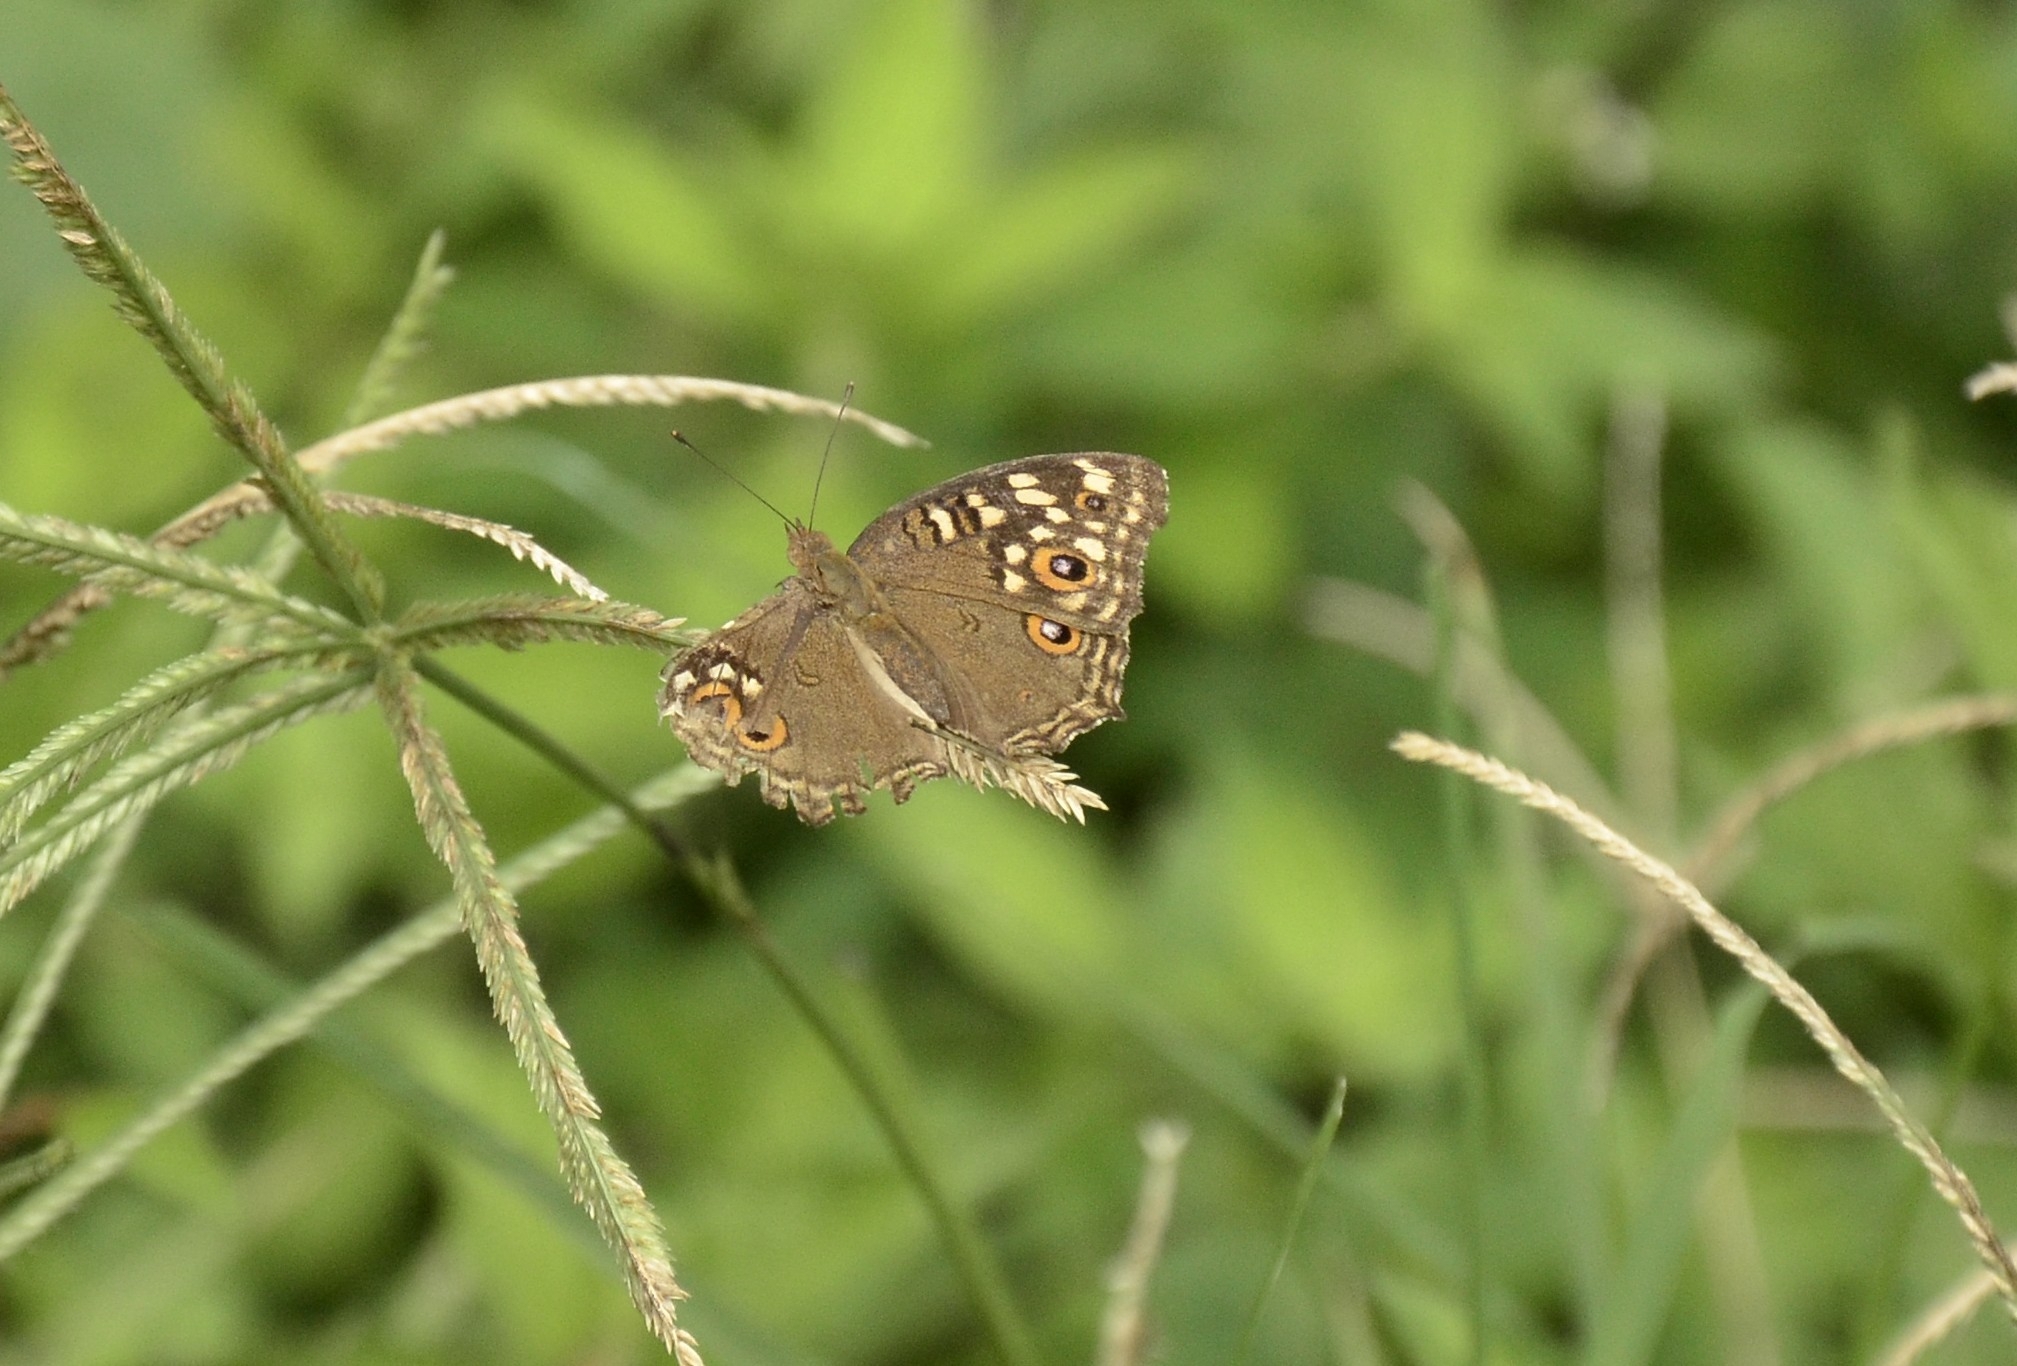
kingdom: Animalia
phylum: Arthropoda
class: Insecta
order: Lepidoptera
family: Nymphalidae
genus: Junonia
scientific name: Junonia lemonias
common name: Lemon pansy
